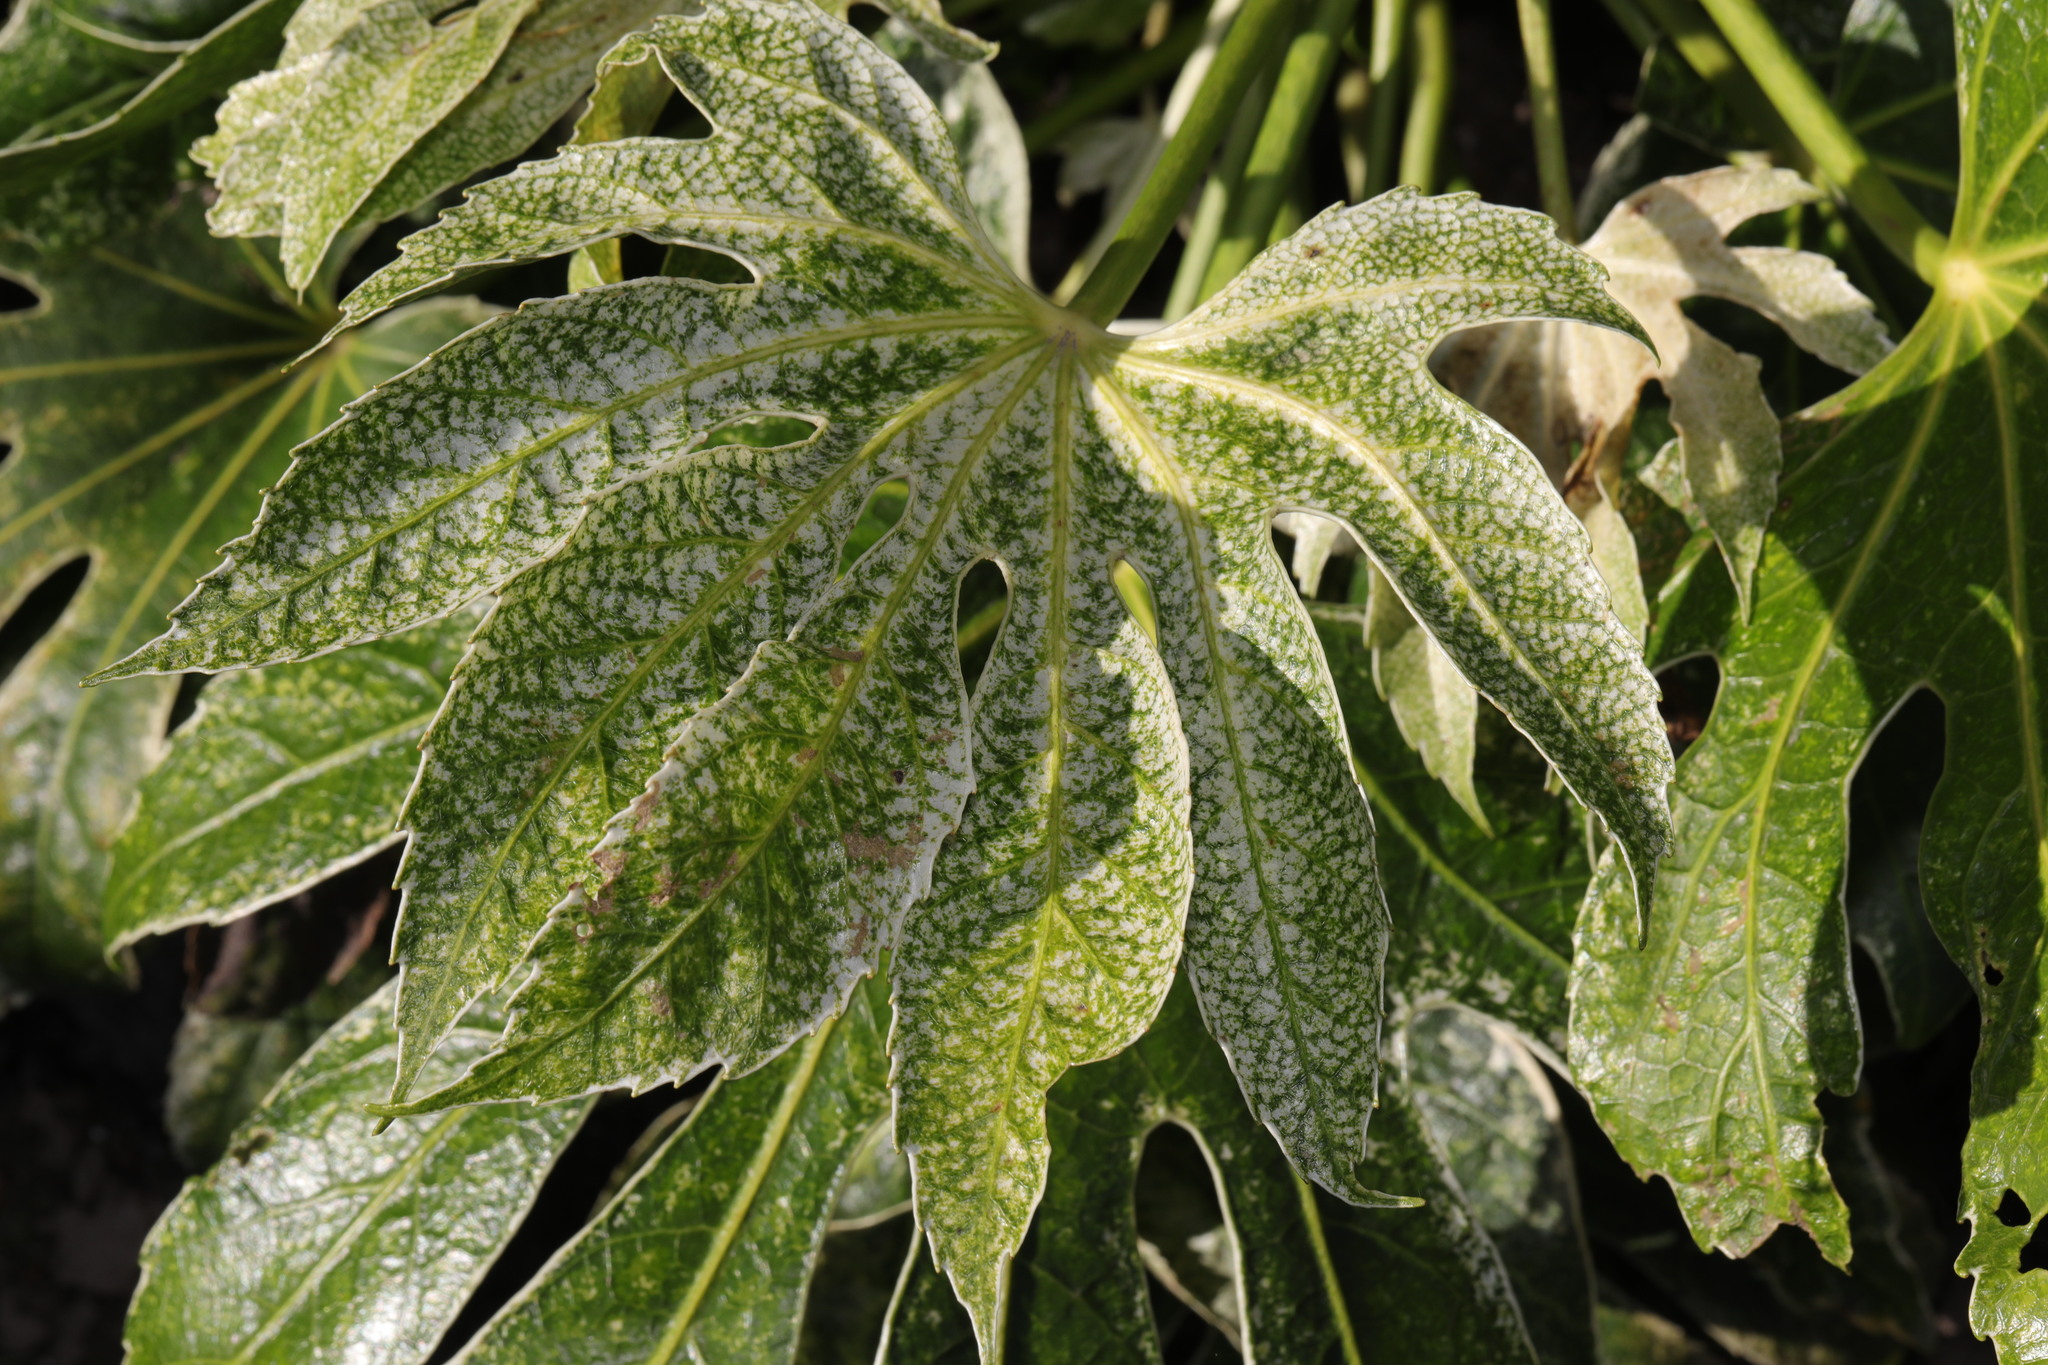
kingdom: Plantae
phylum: Tracheophyta
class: Magnoliopsida
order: Apiales
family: Araliaceae
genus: Fatsia
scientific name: Fatsia japonica
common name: Fatsia
